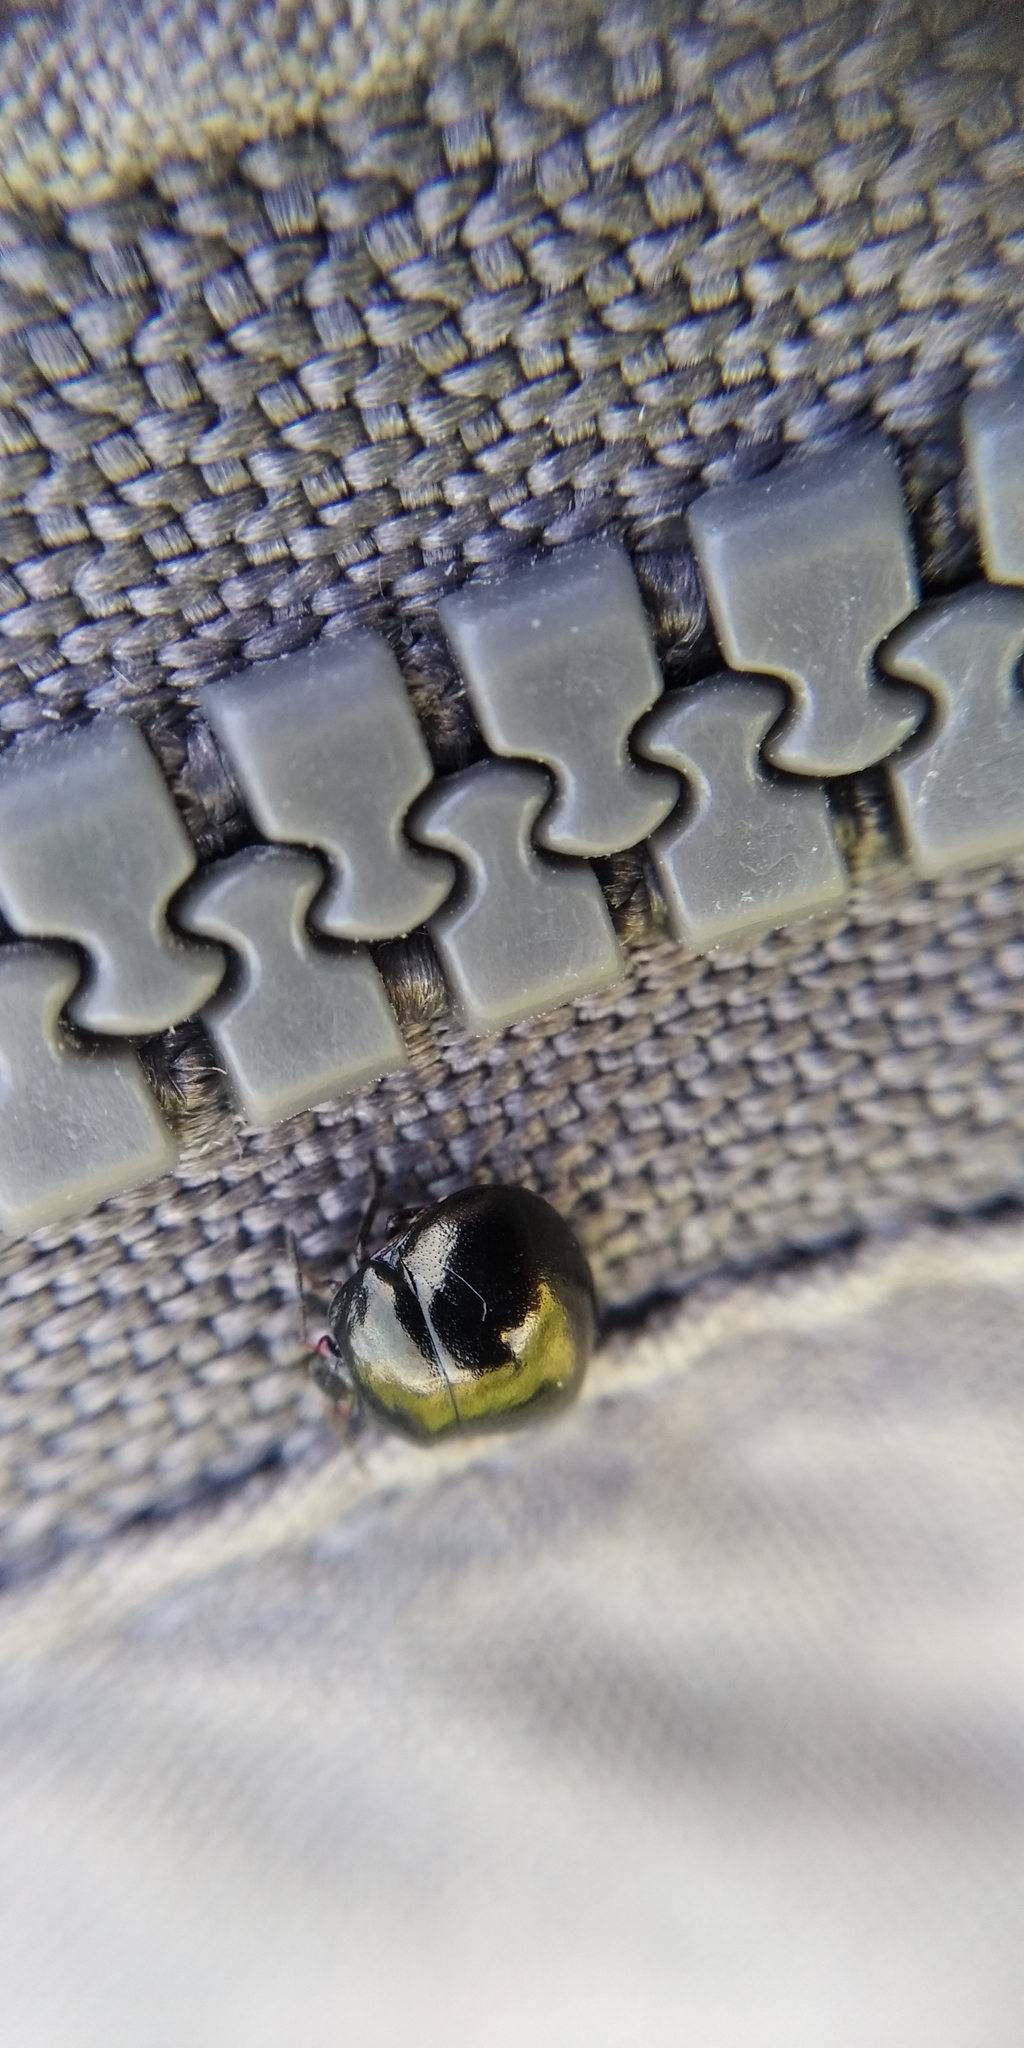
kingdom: Animalia
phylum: Arthropoda
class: Insecta
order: Hemiptera
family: Plataspidae
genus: Coptosoma
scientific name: Coptosoma scutellatum
